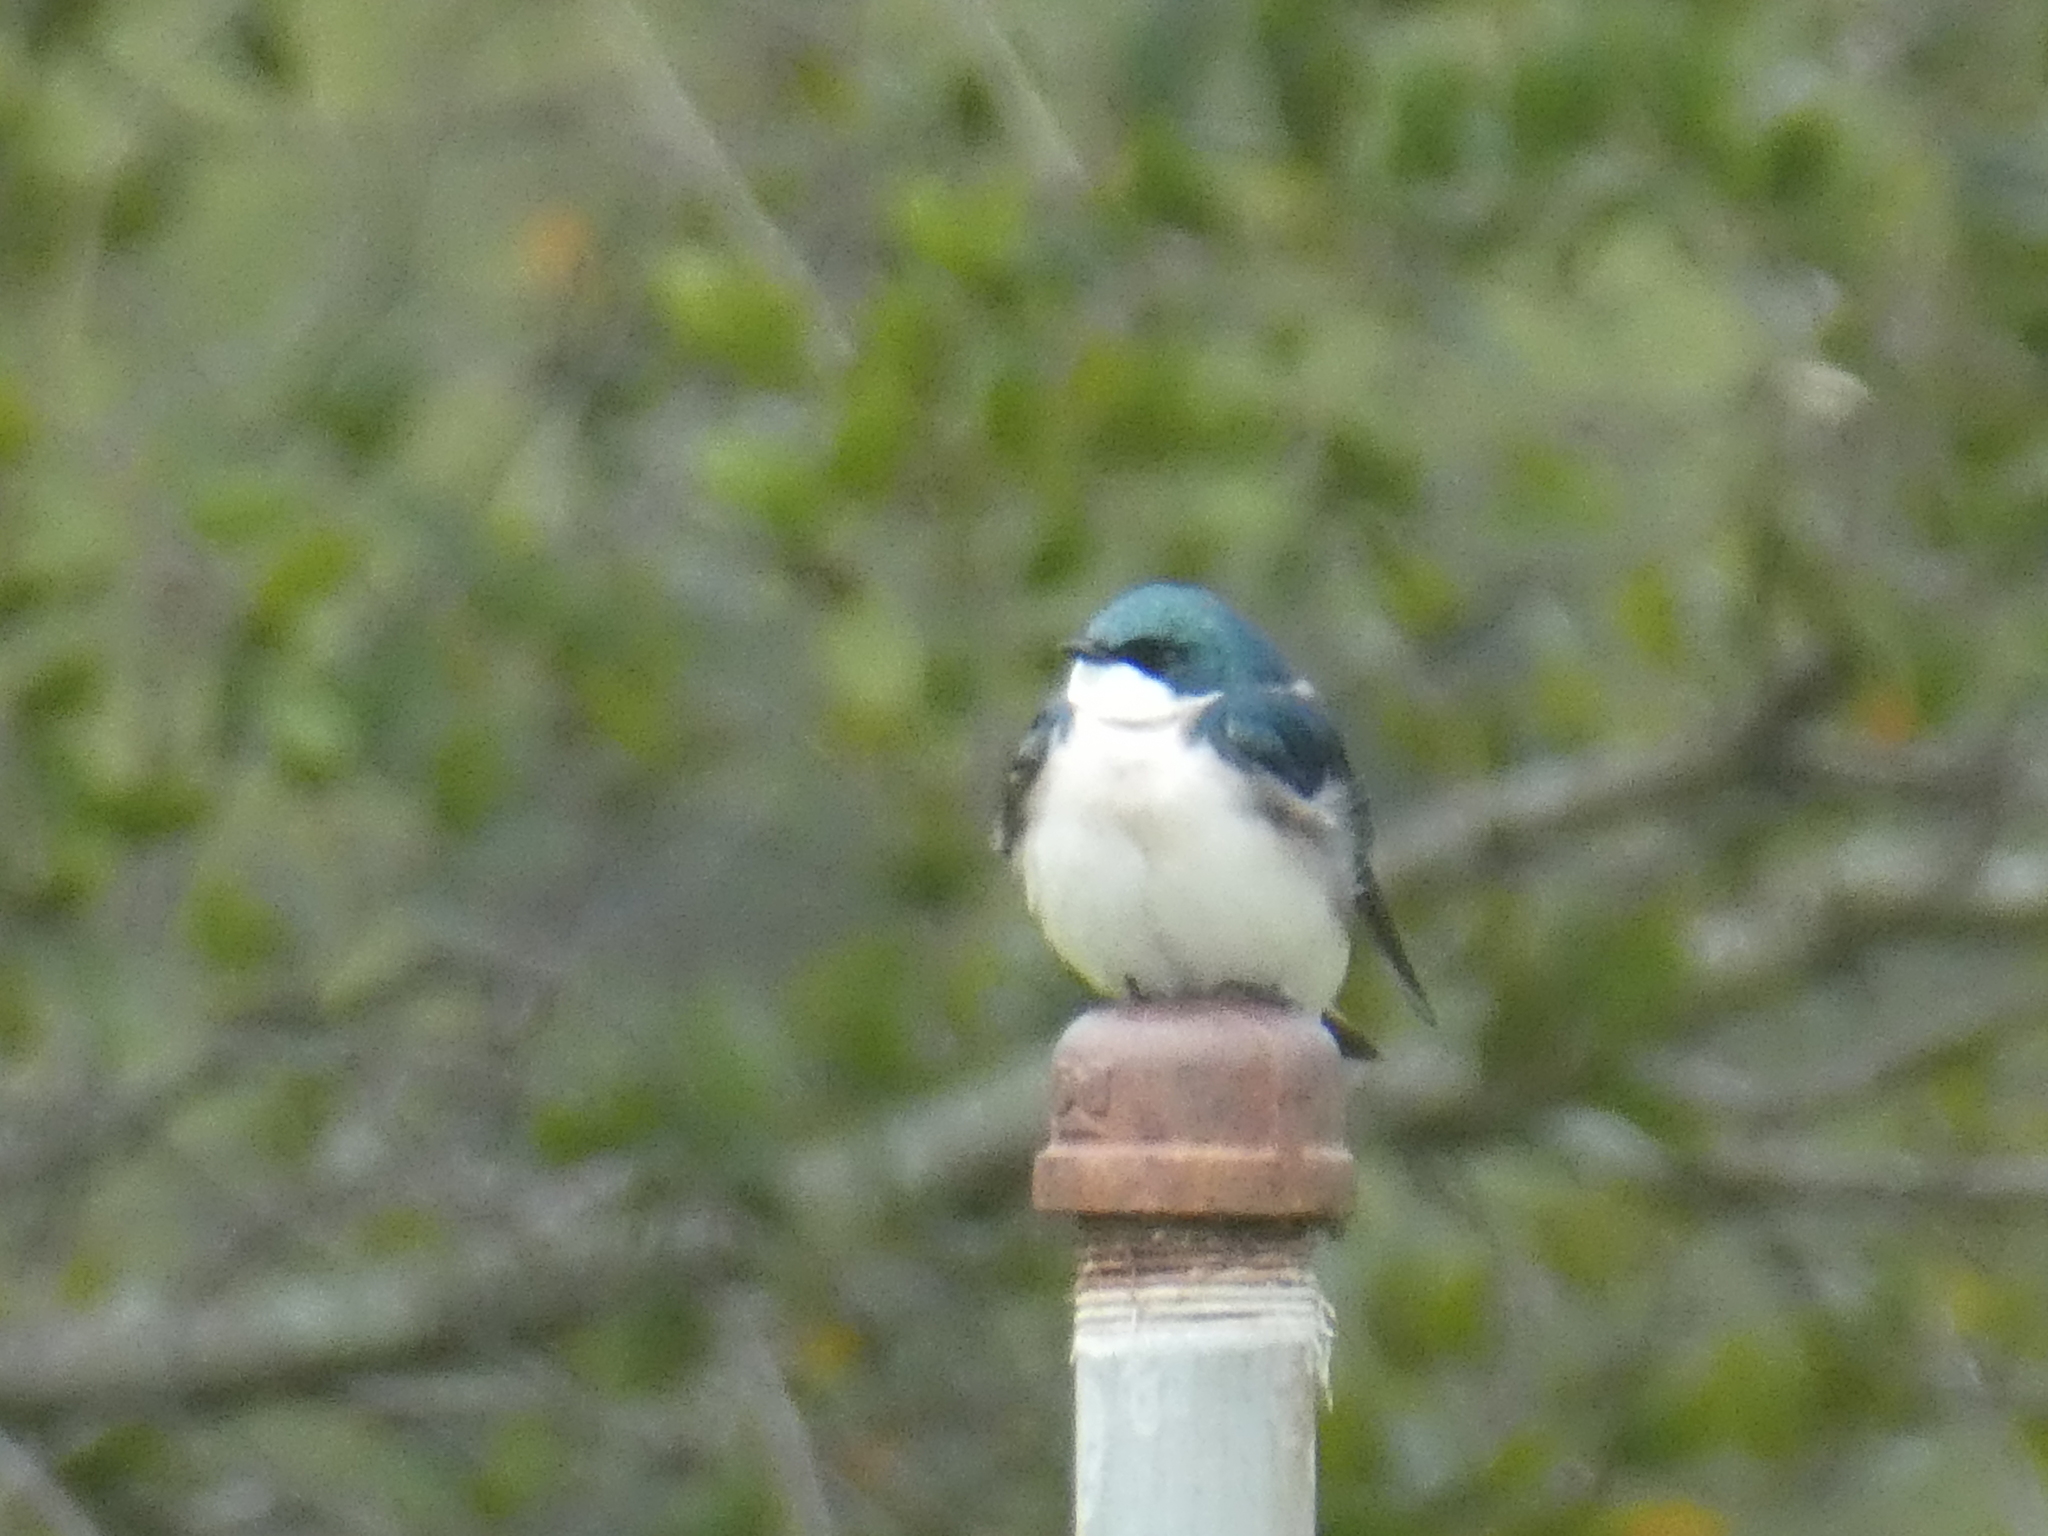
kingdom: Animalia
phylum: Chordata
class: Aves
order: Passeriformes
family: Hirundinidae
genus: Tachycineta
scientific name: Tachycineta bicolor
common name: Tree swallow
